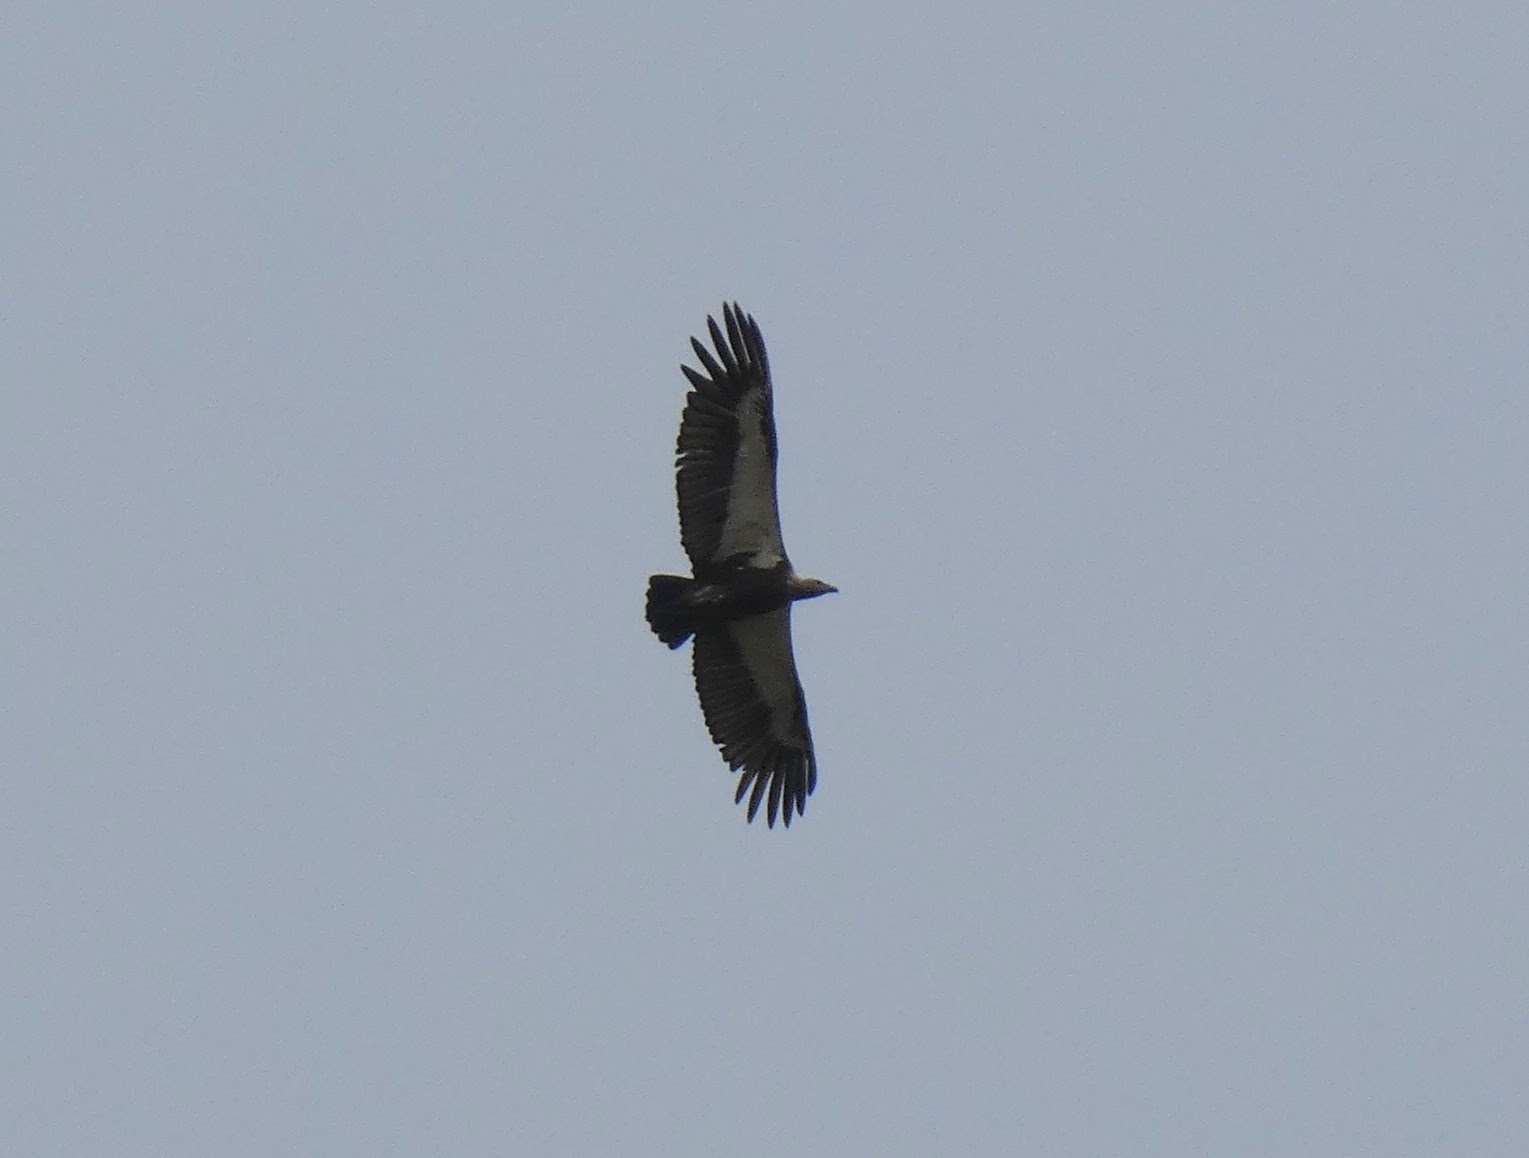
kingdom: Animalia
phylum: Chordata
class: Aves
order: Accipitriformes
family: Accipitridae
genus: Gyps
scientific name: Gyps bengalensis
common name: White-rumped vulture
